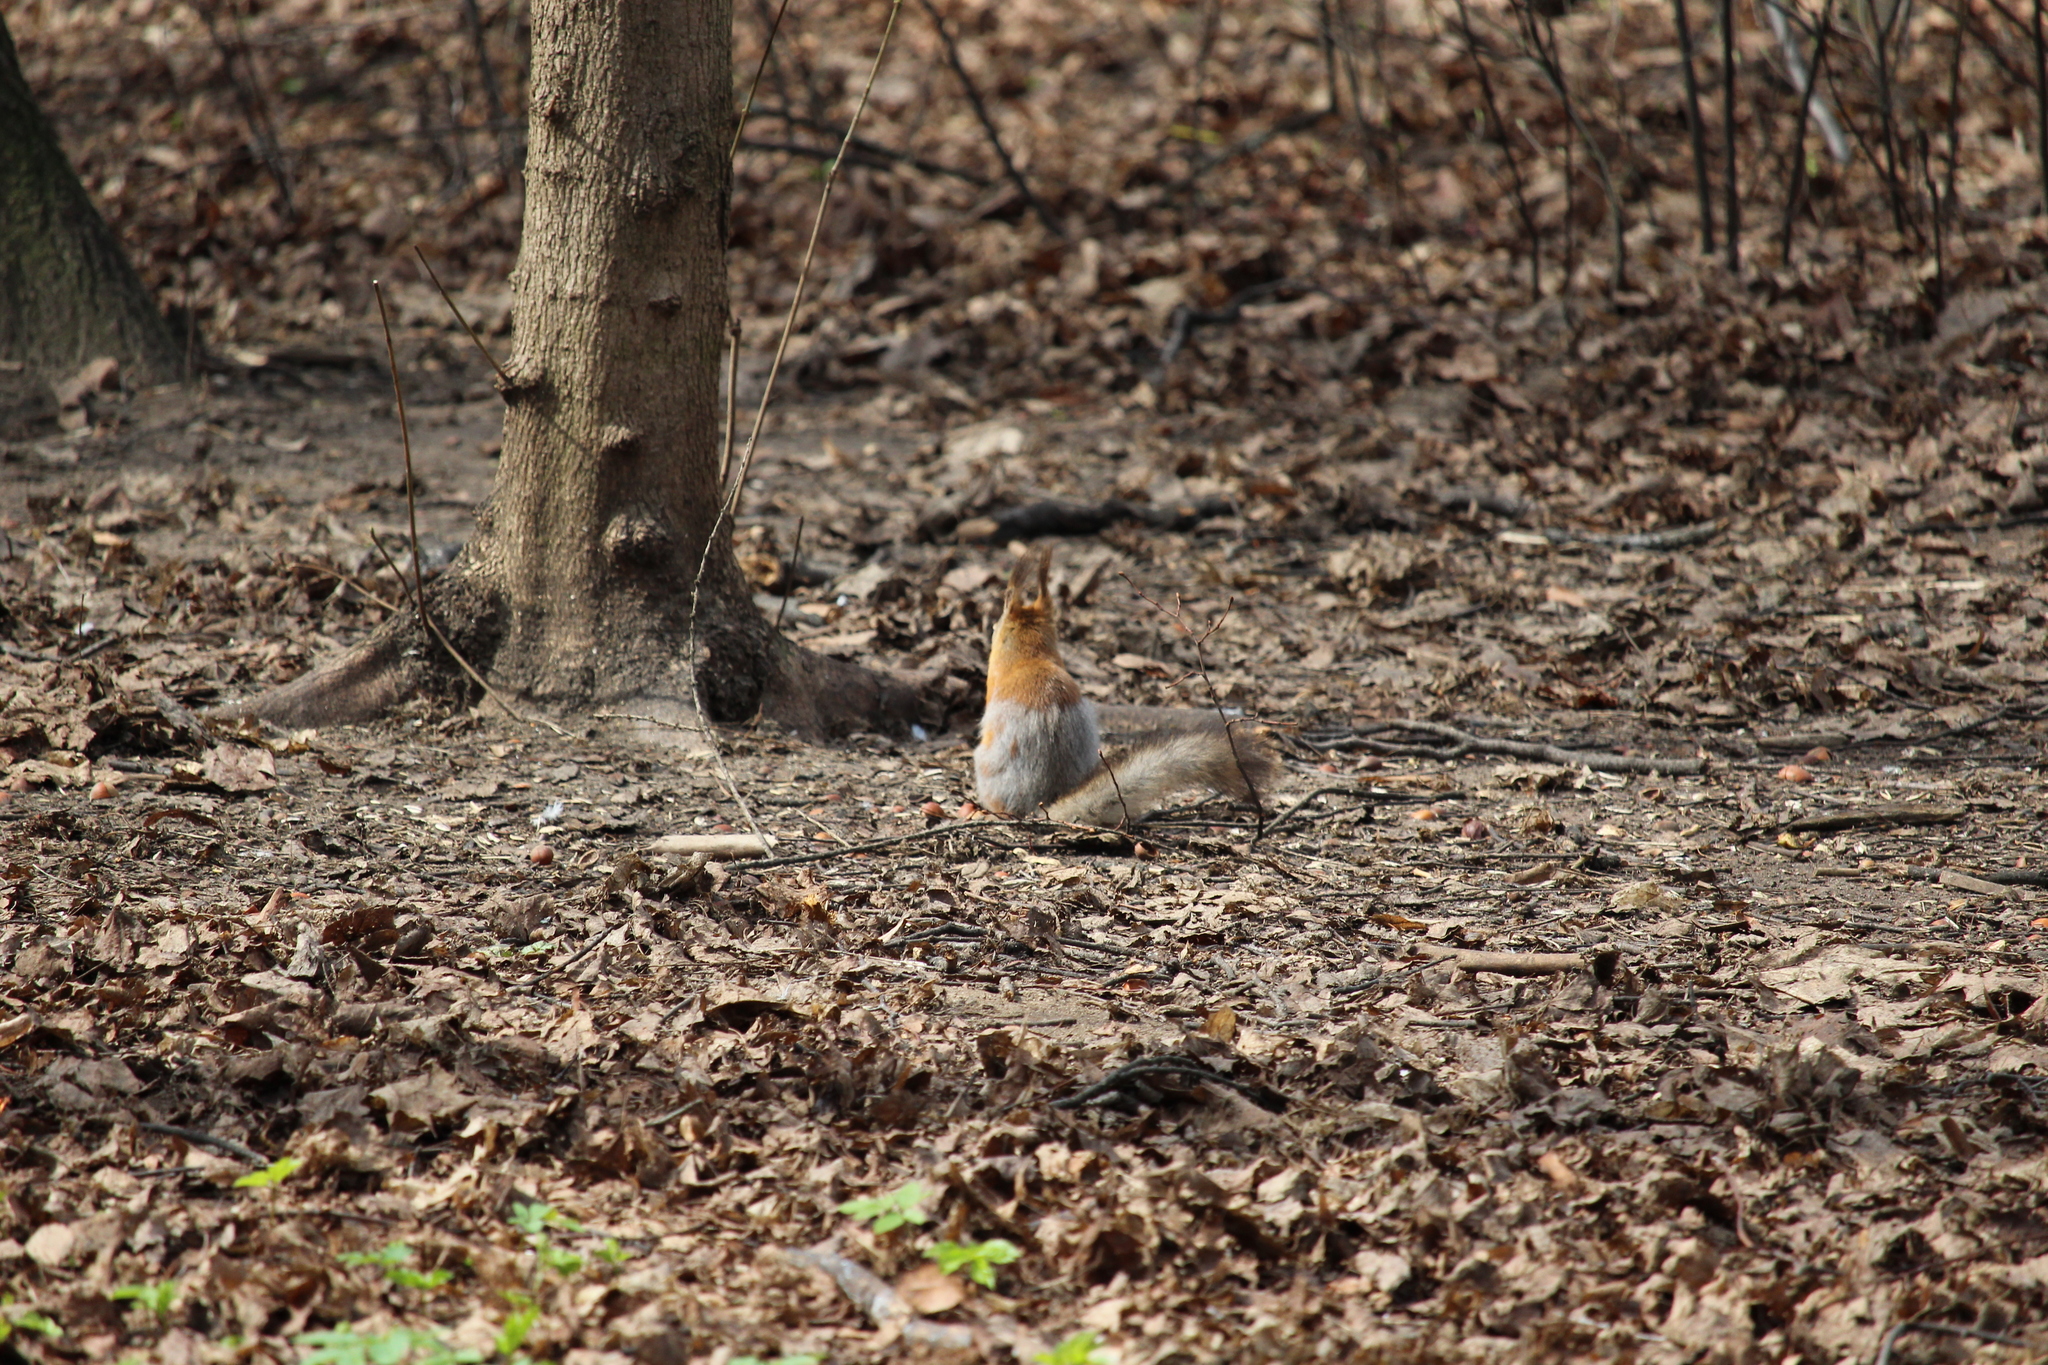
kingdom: Animalia
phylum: Chordata
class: Mammalia
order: Rodentia
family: Sciuridae
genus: Sciurus
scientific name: Sciurus vulgaris
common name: Eurasian red squirrel
